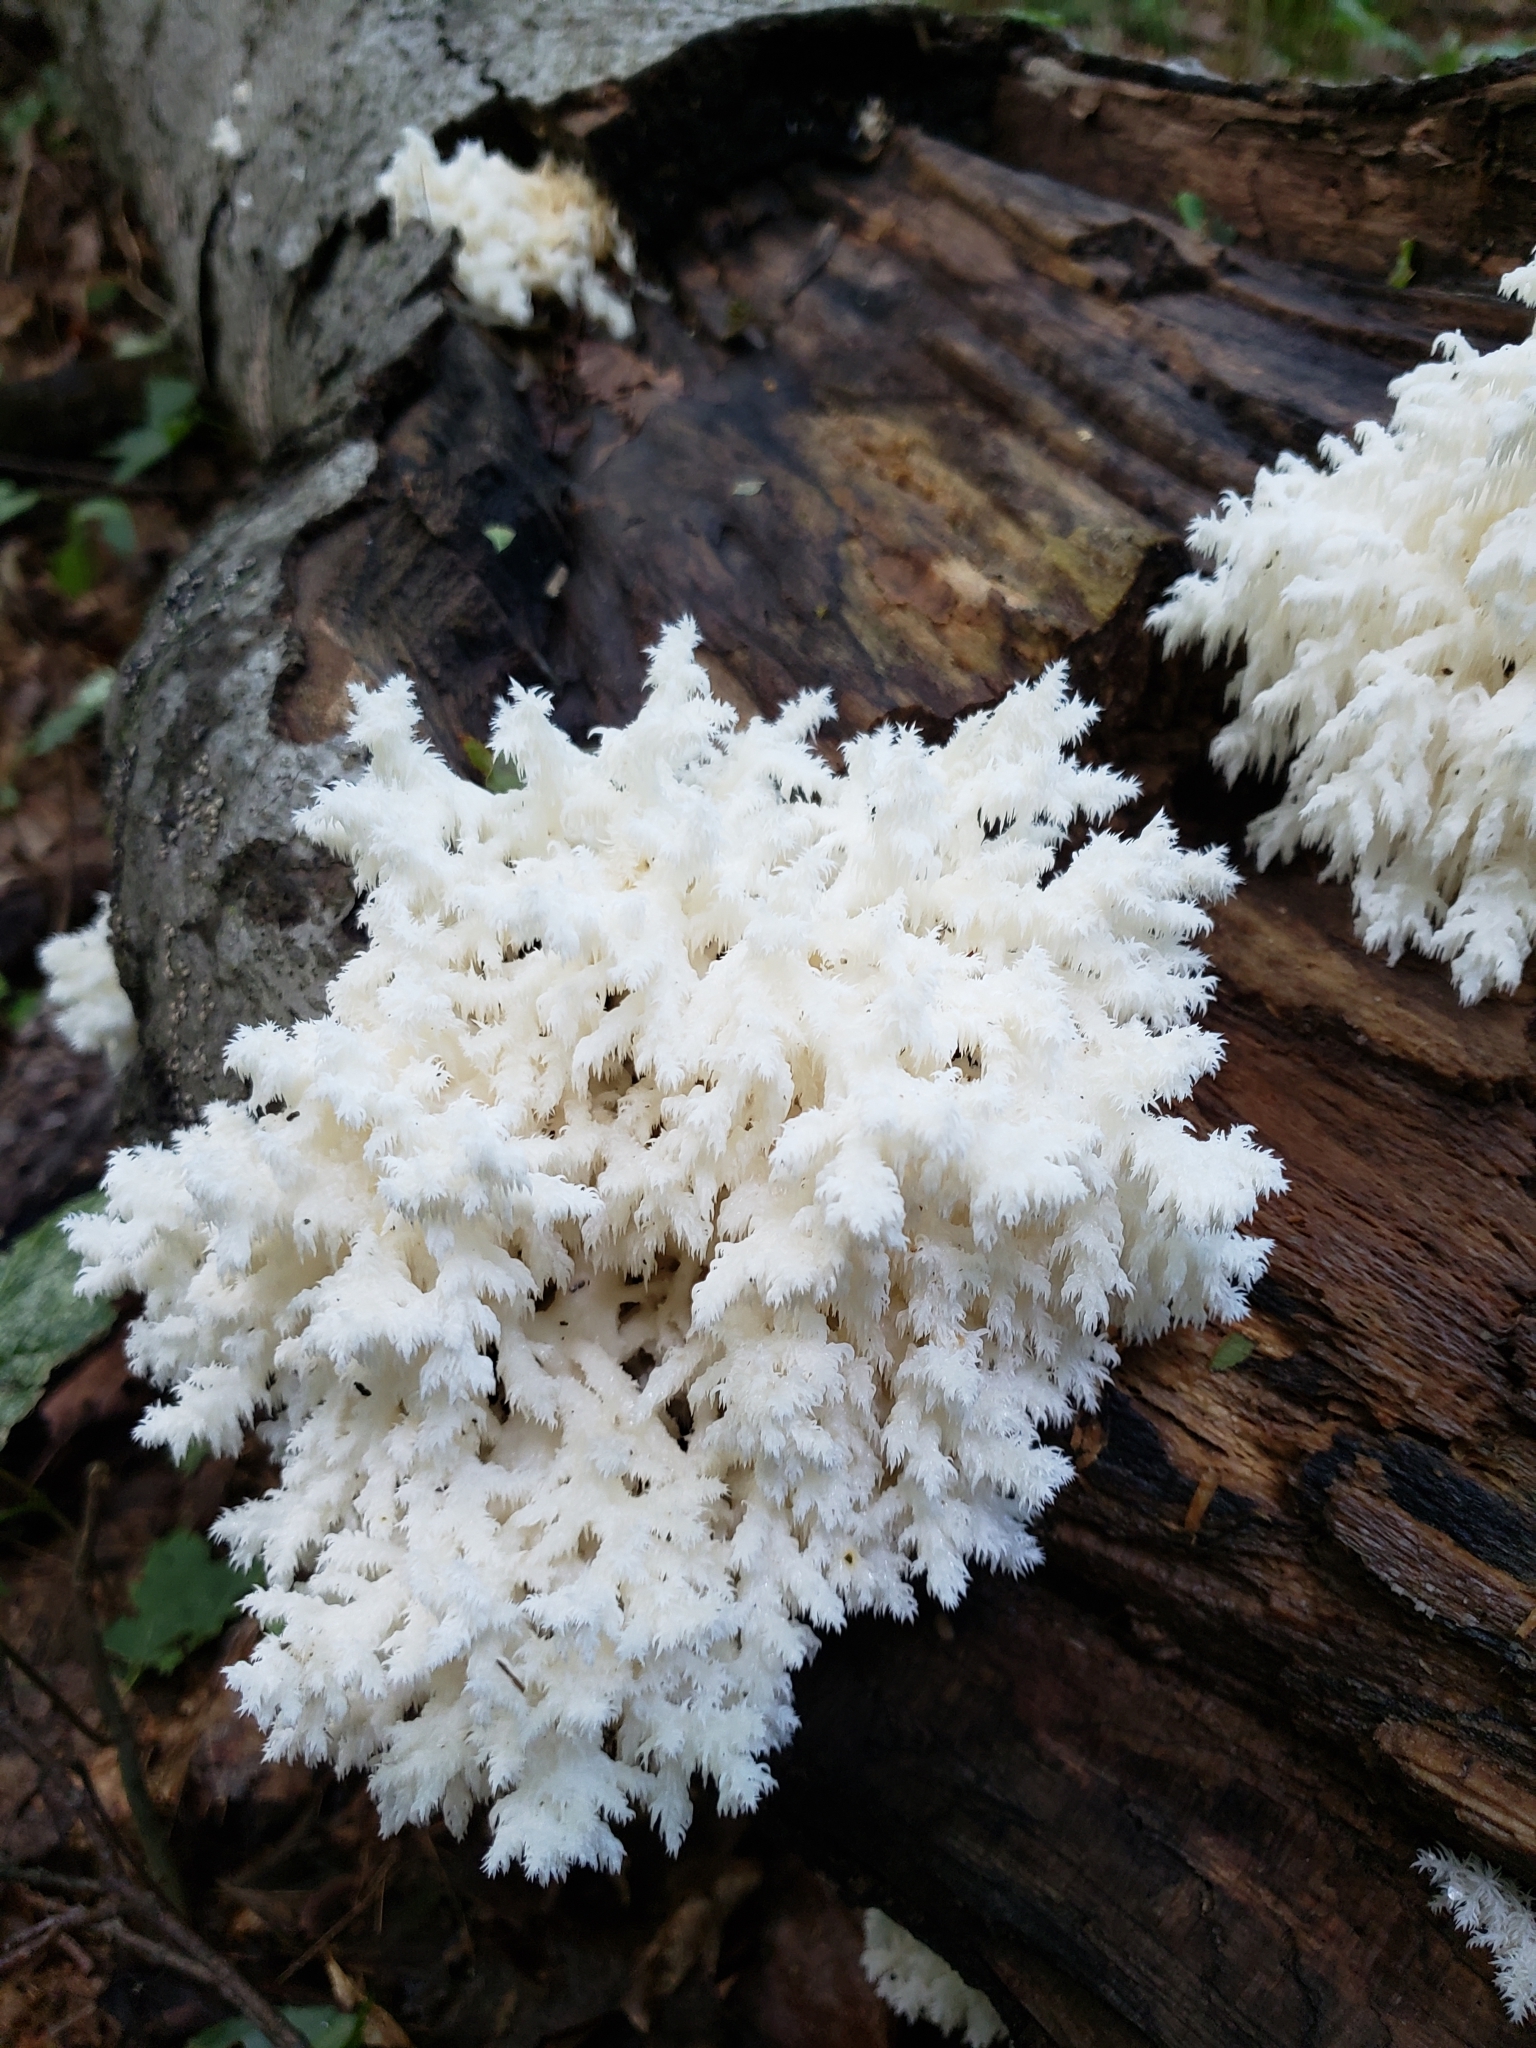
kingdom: Fungi
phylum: Basidiomycota
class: Agaricomycetes
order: Russulales
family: Hericiaceae
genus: Hericium
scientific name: Hericium coralloides
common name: Coral tooth
